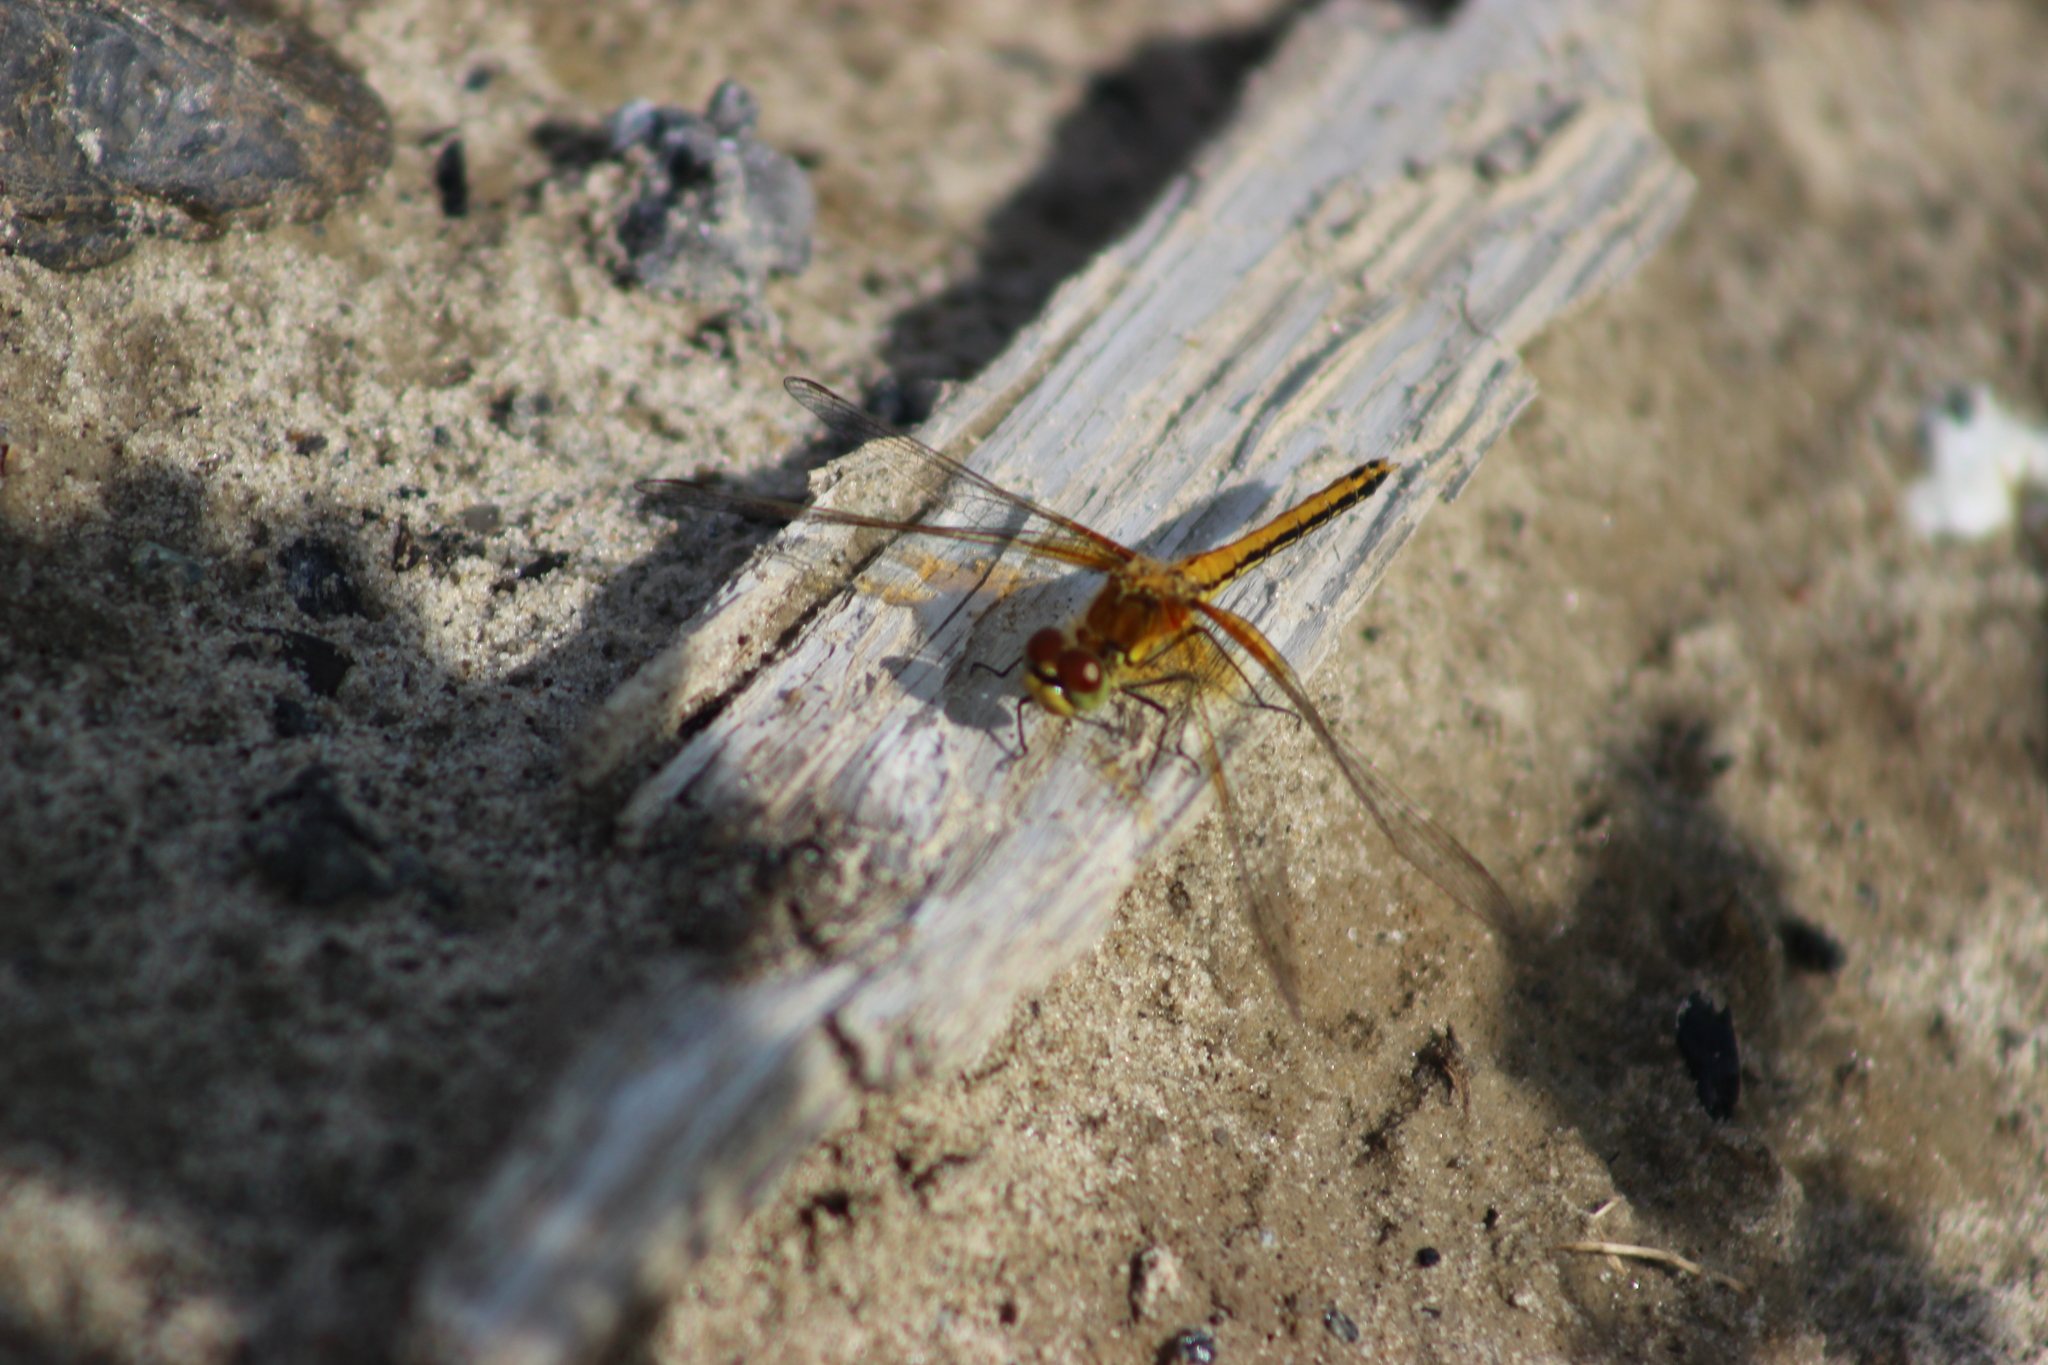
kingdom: Animalia
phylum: Arthropoda
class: Insecta
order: Odonata
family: Libellulidae
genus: Sympetrum
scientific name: Sympetrum flaveolum
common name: Yellow-winged darter
